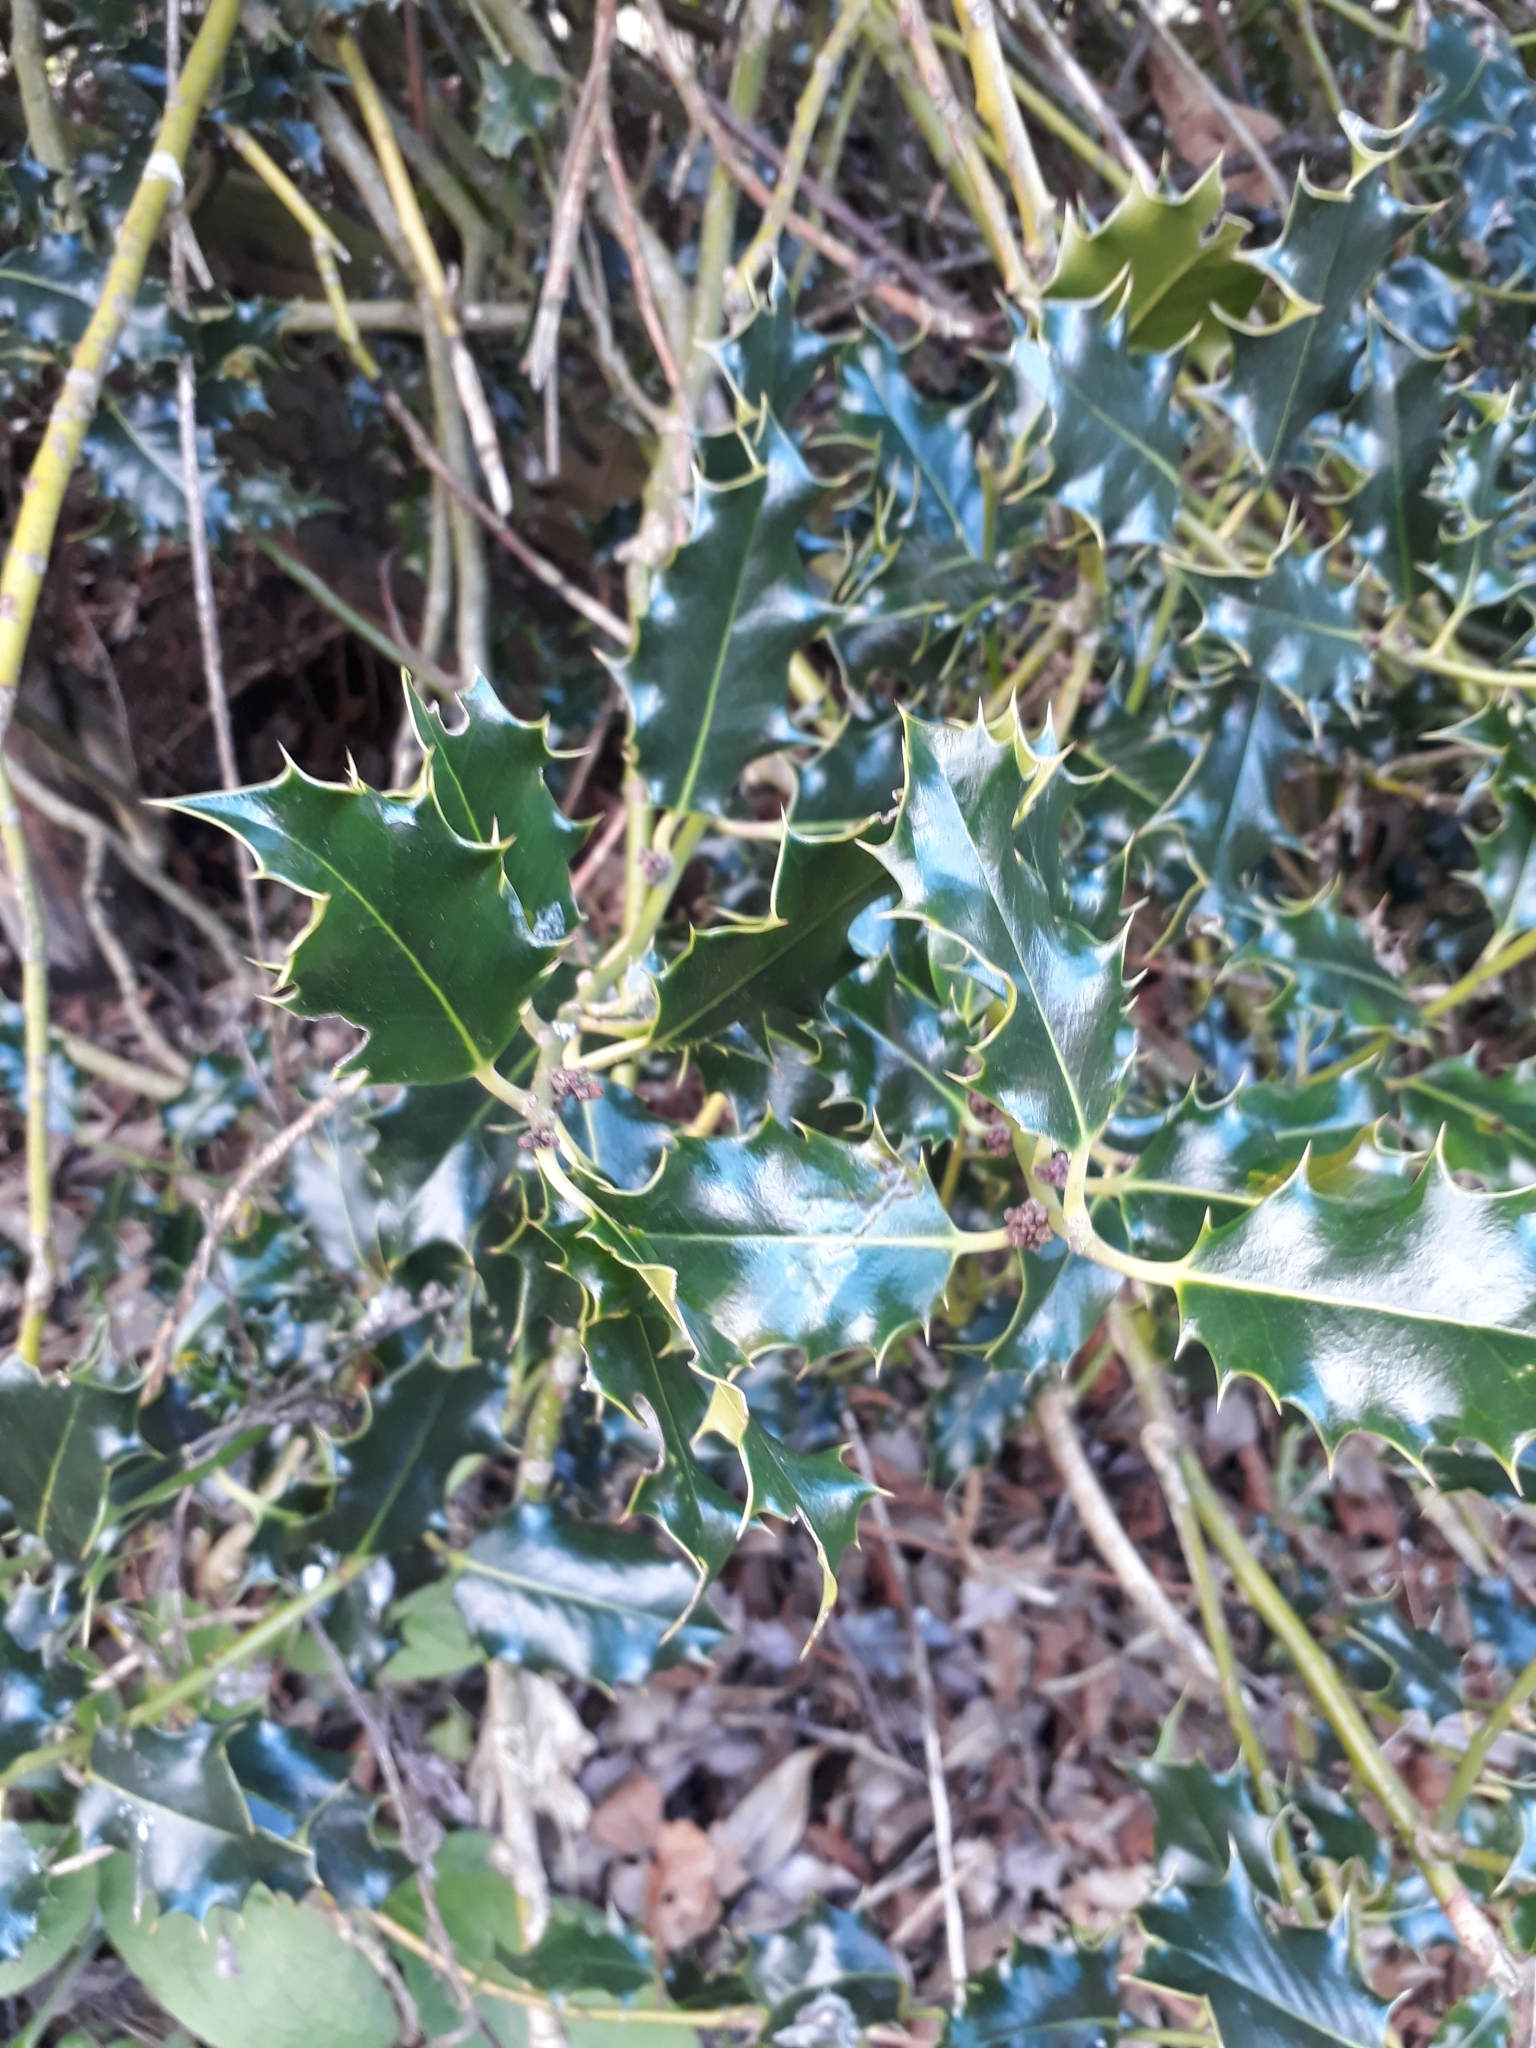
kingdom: Plantae
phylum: Tracheophyta
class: Magnoliopsida
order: Aquifoliales
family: Aquifoliaceae
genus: Ilex
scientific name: Ilex aquifolium
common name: English holly
